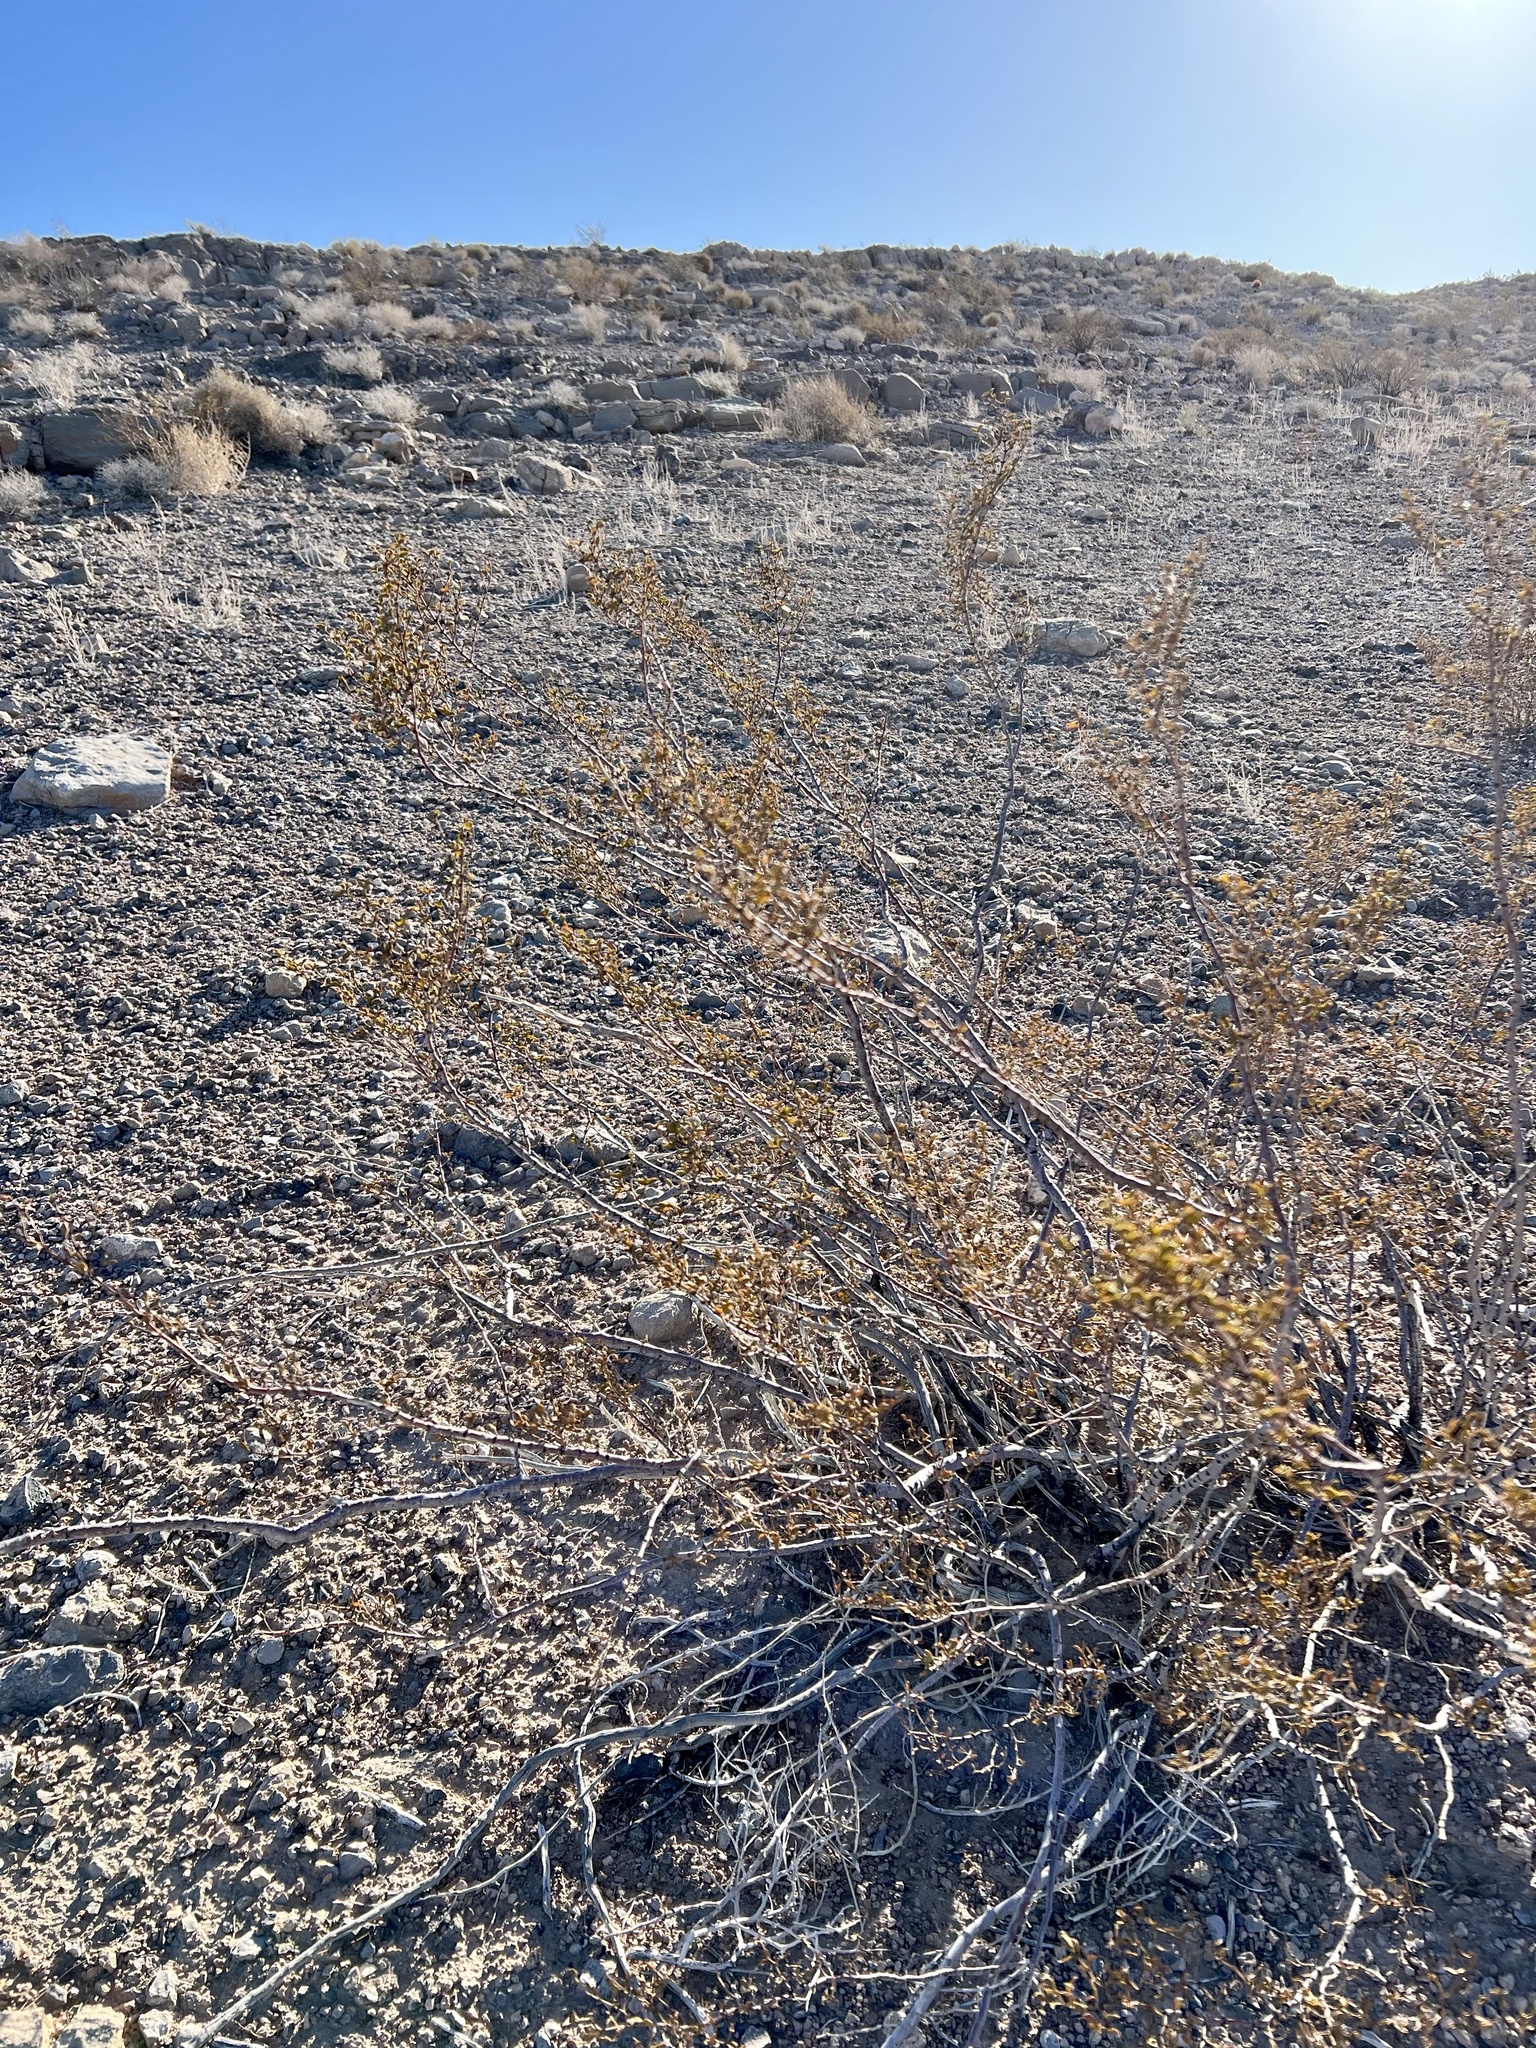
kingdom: Plantae
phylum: Tracheophyta
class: Magnoliopsida
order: Zygophyllales
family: Zygophyllaceae
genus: Larrea
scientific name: Larrea tridentata
